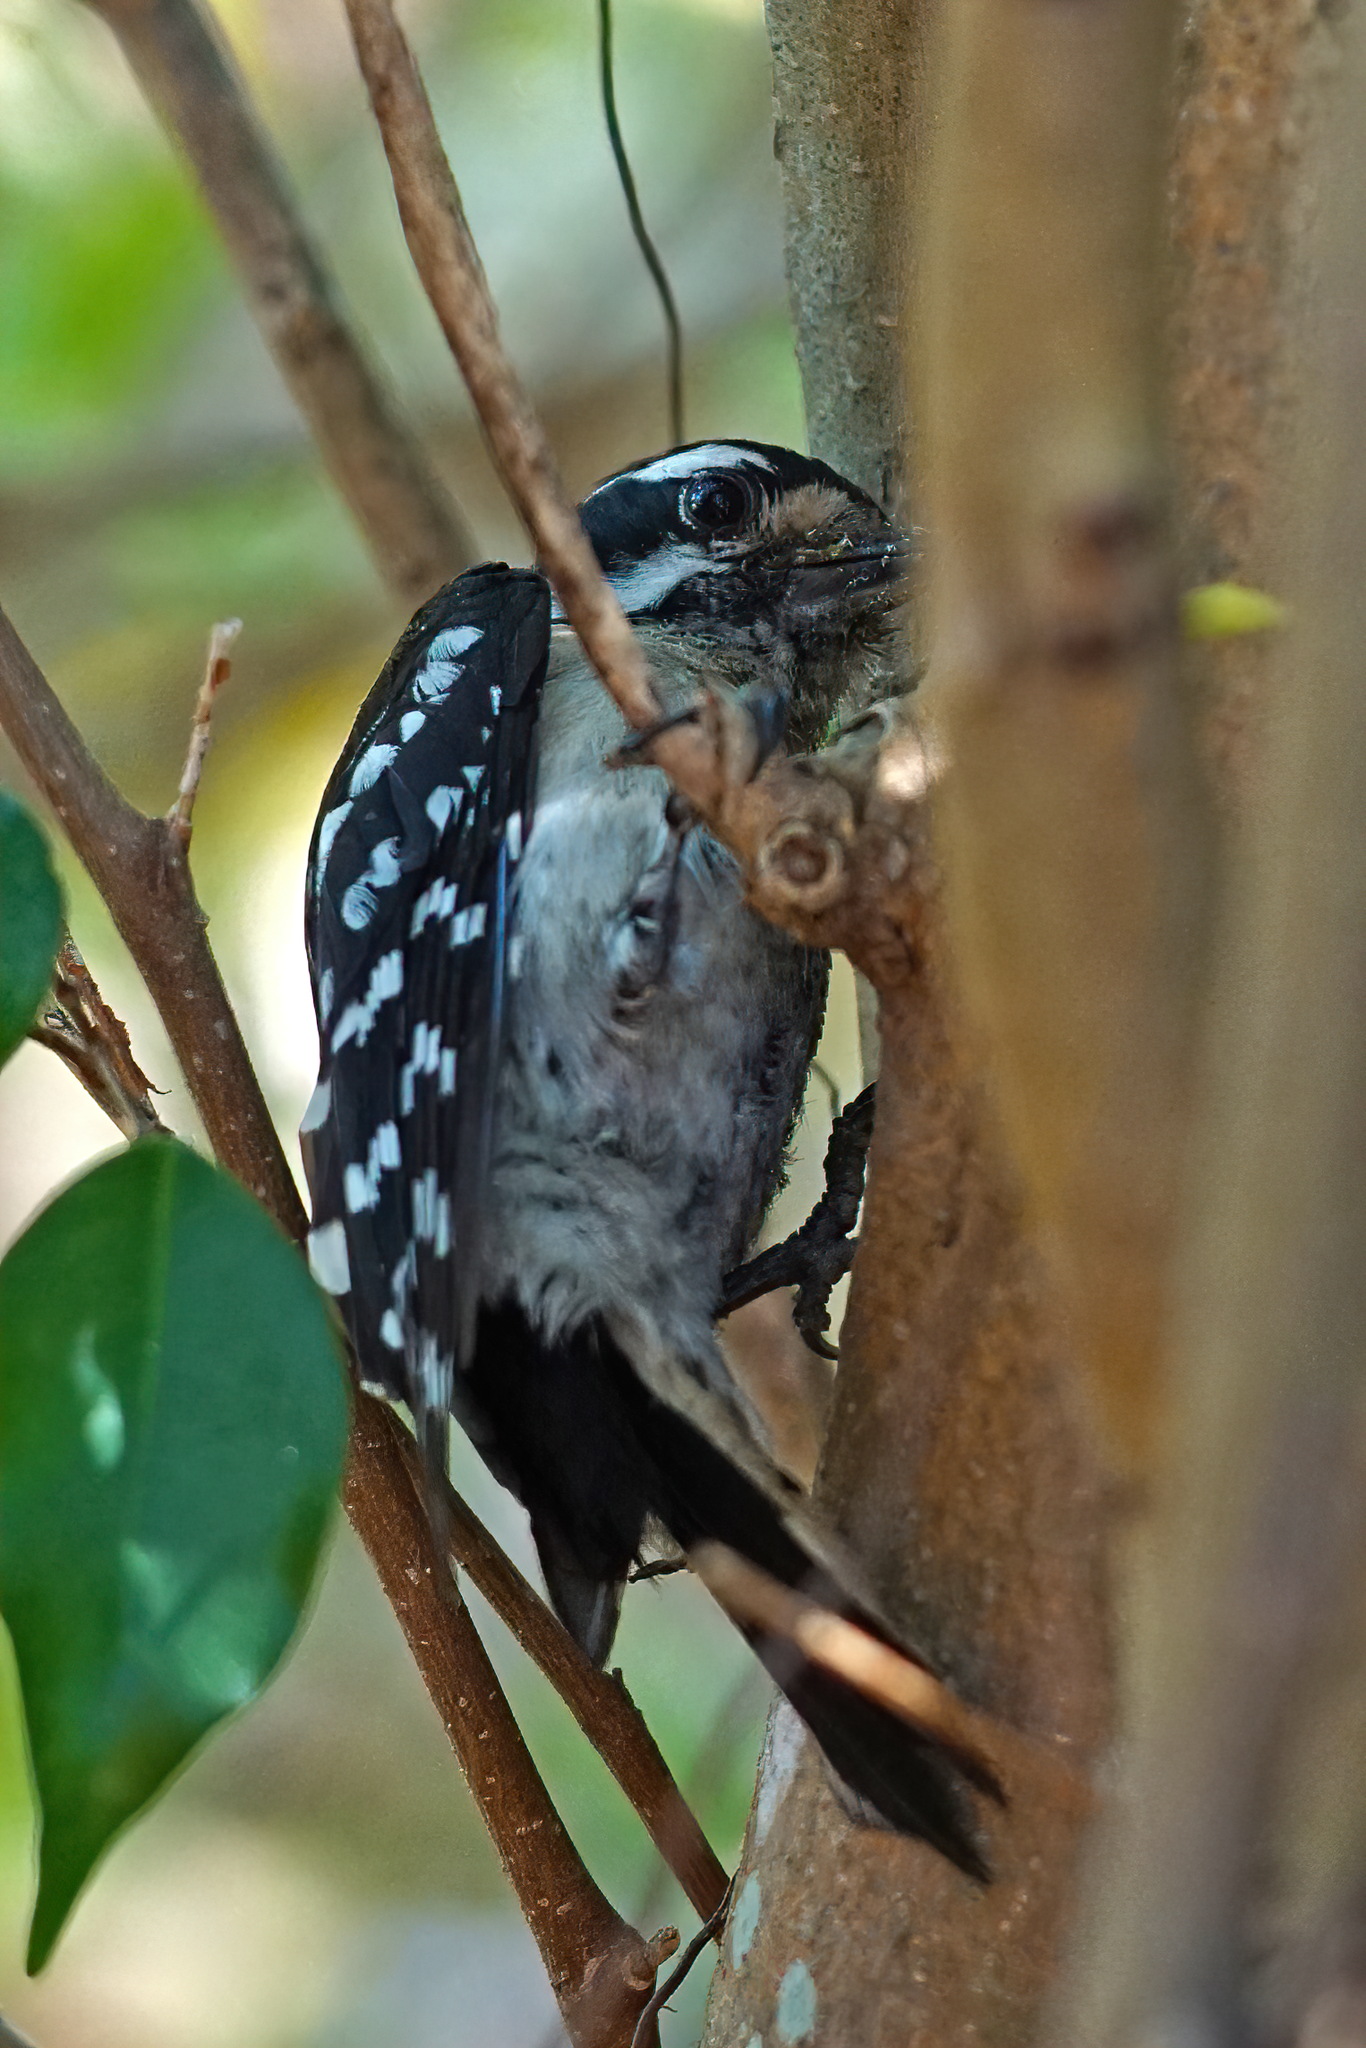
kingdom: Animalia
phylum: Chordata
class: Aves
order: Piciformes
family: Picidae
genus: Dryobates
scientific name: Dryobates pubescens
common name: Downy woodpecker
